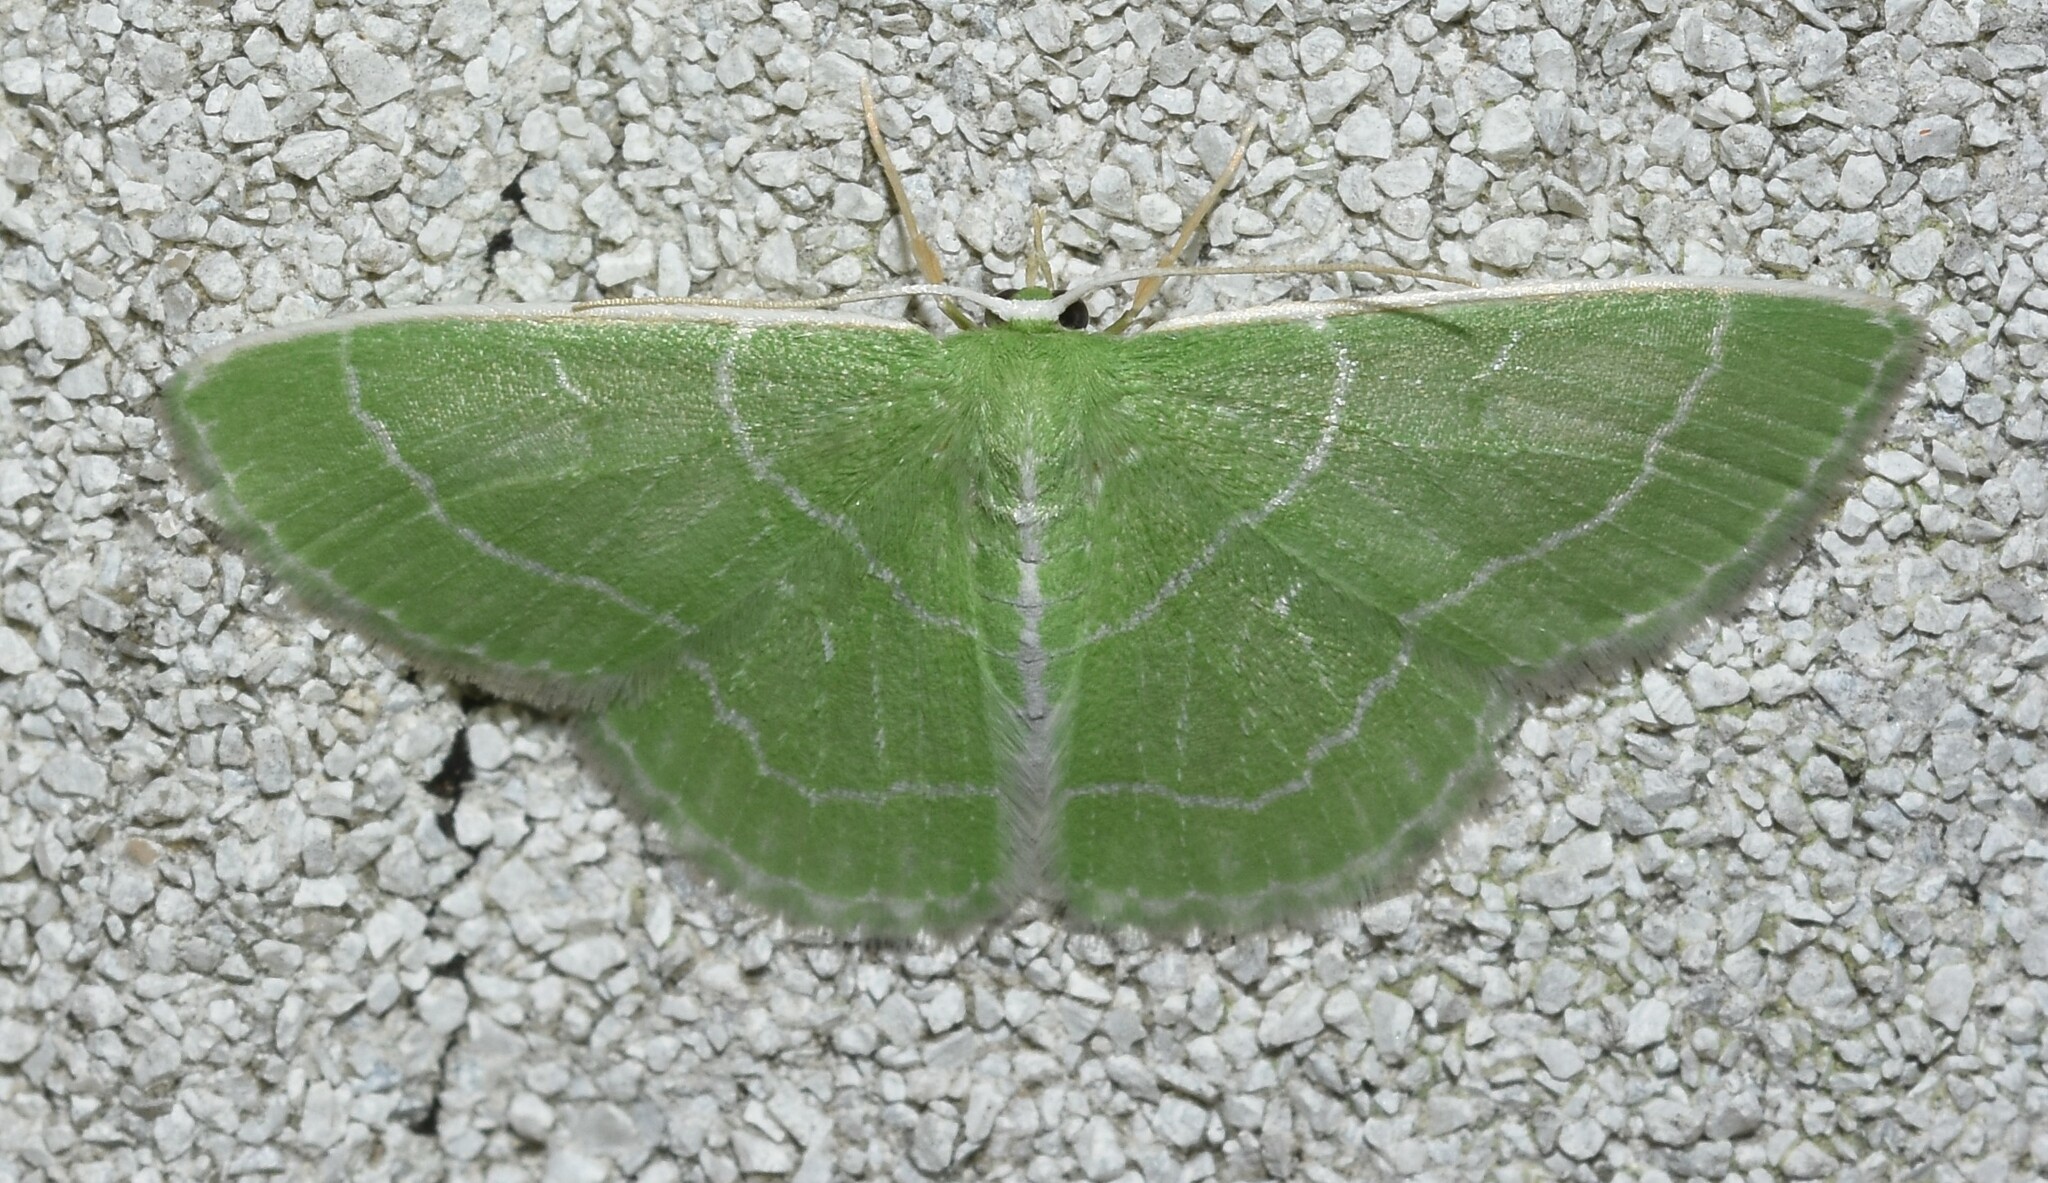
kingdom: Animalia
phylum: Arthropoda
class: Insecta
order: Lepidoptera
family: Geometridae
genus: Synchlora
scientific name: Synchlora aerata
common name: Wavy-lined emerald
